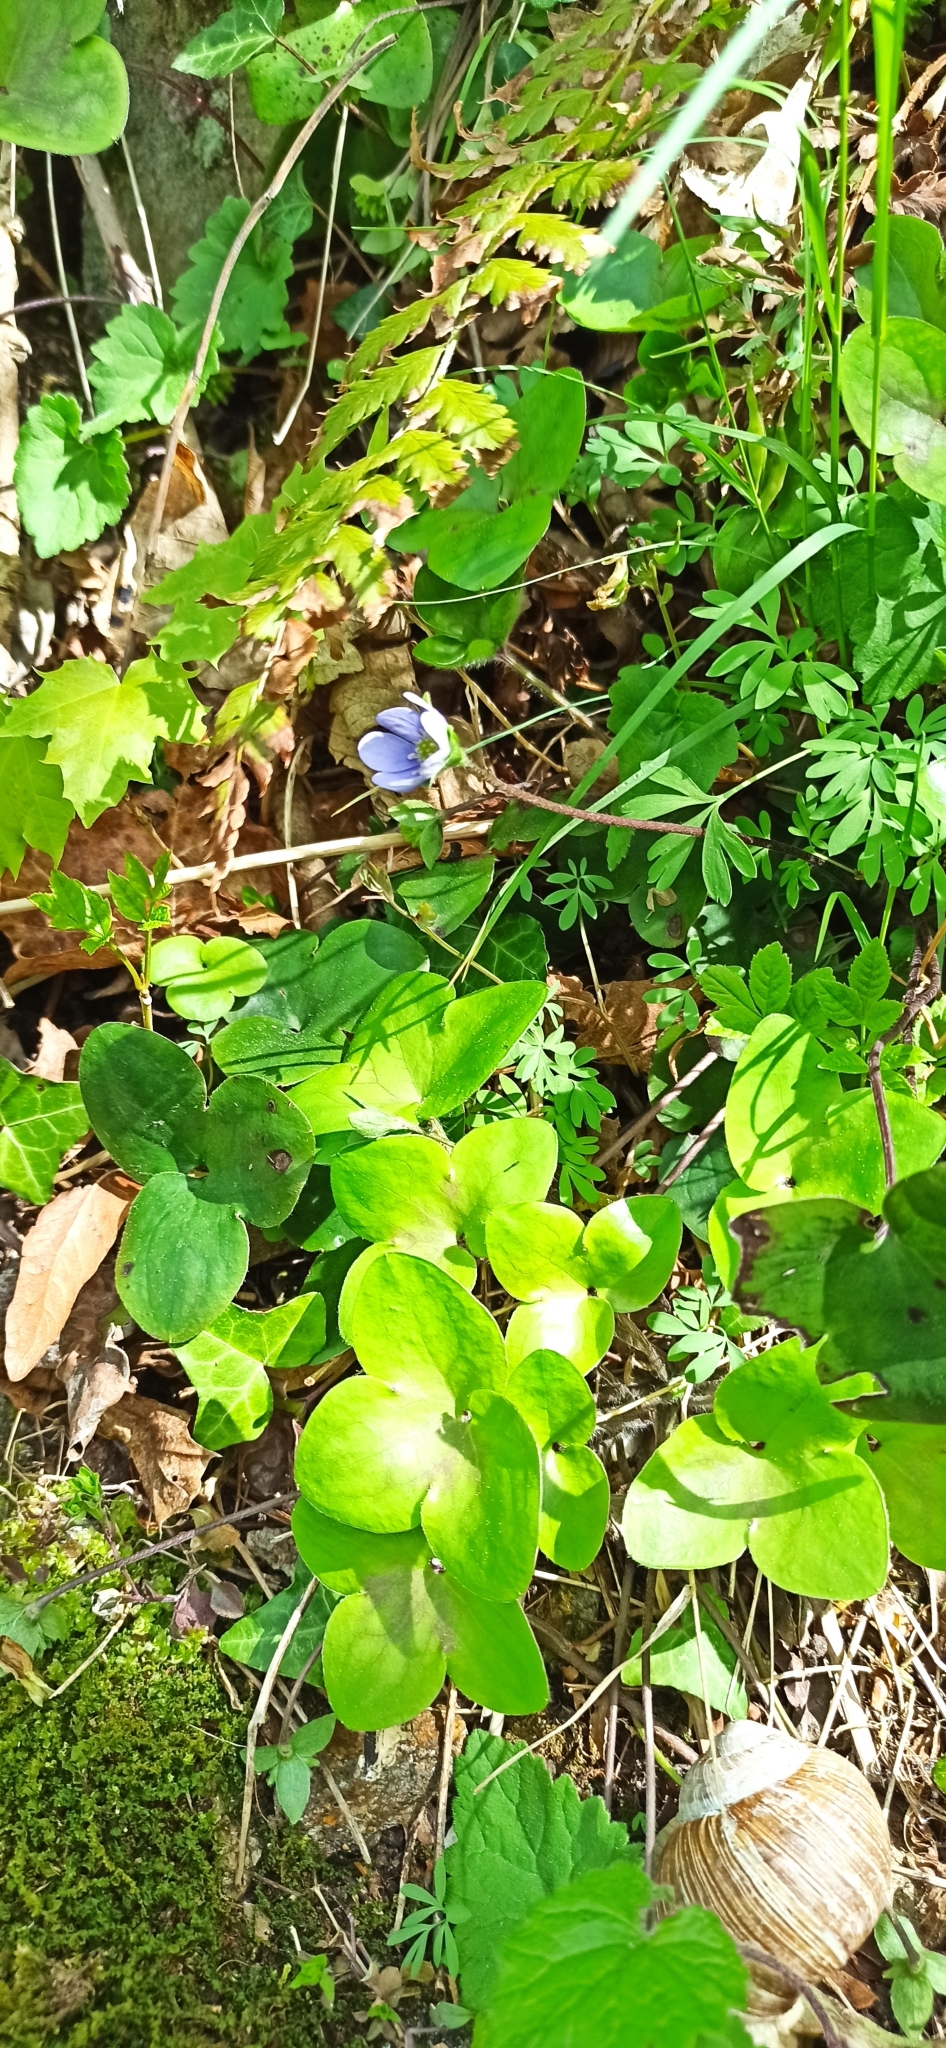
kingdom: Plantae
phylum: Tracheophyta
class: Magnoliopsida
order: Ranunculales
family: Ranunculaceae
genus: Hepatica
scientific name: Hepatica nobilis
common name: Liverleaf
